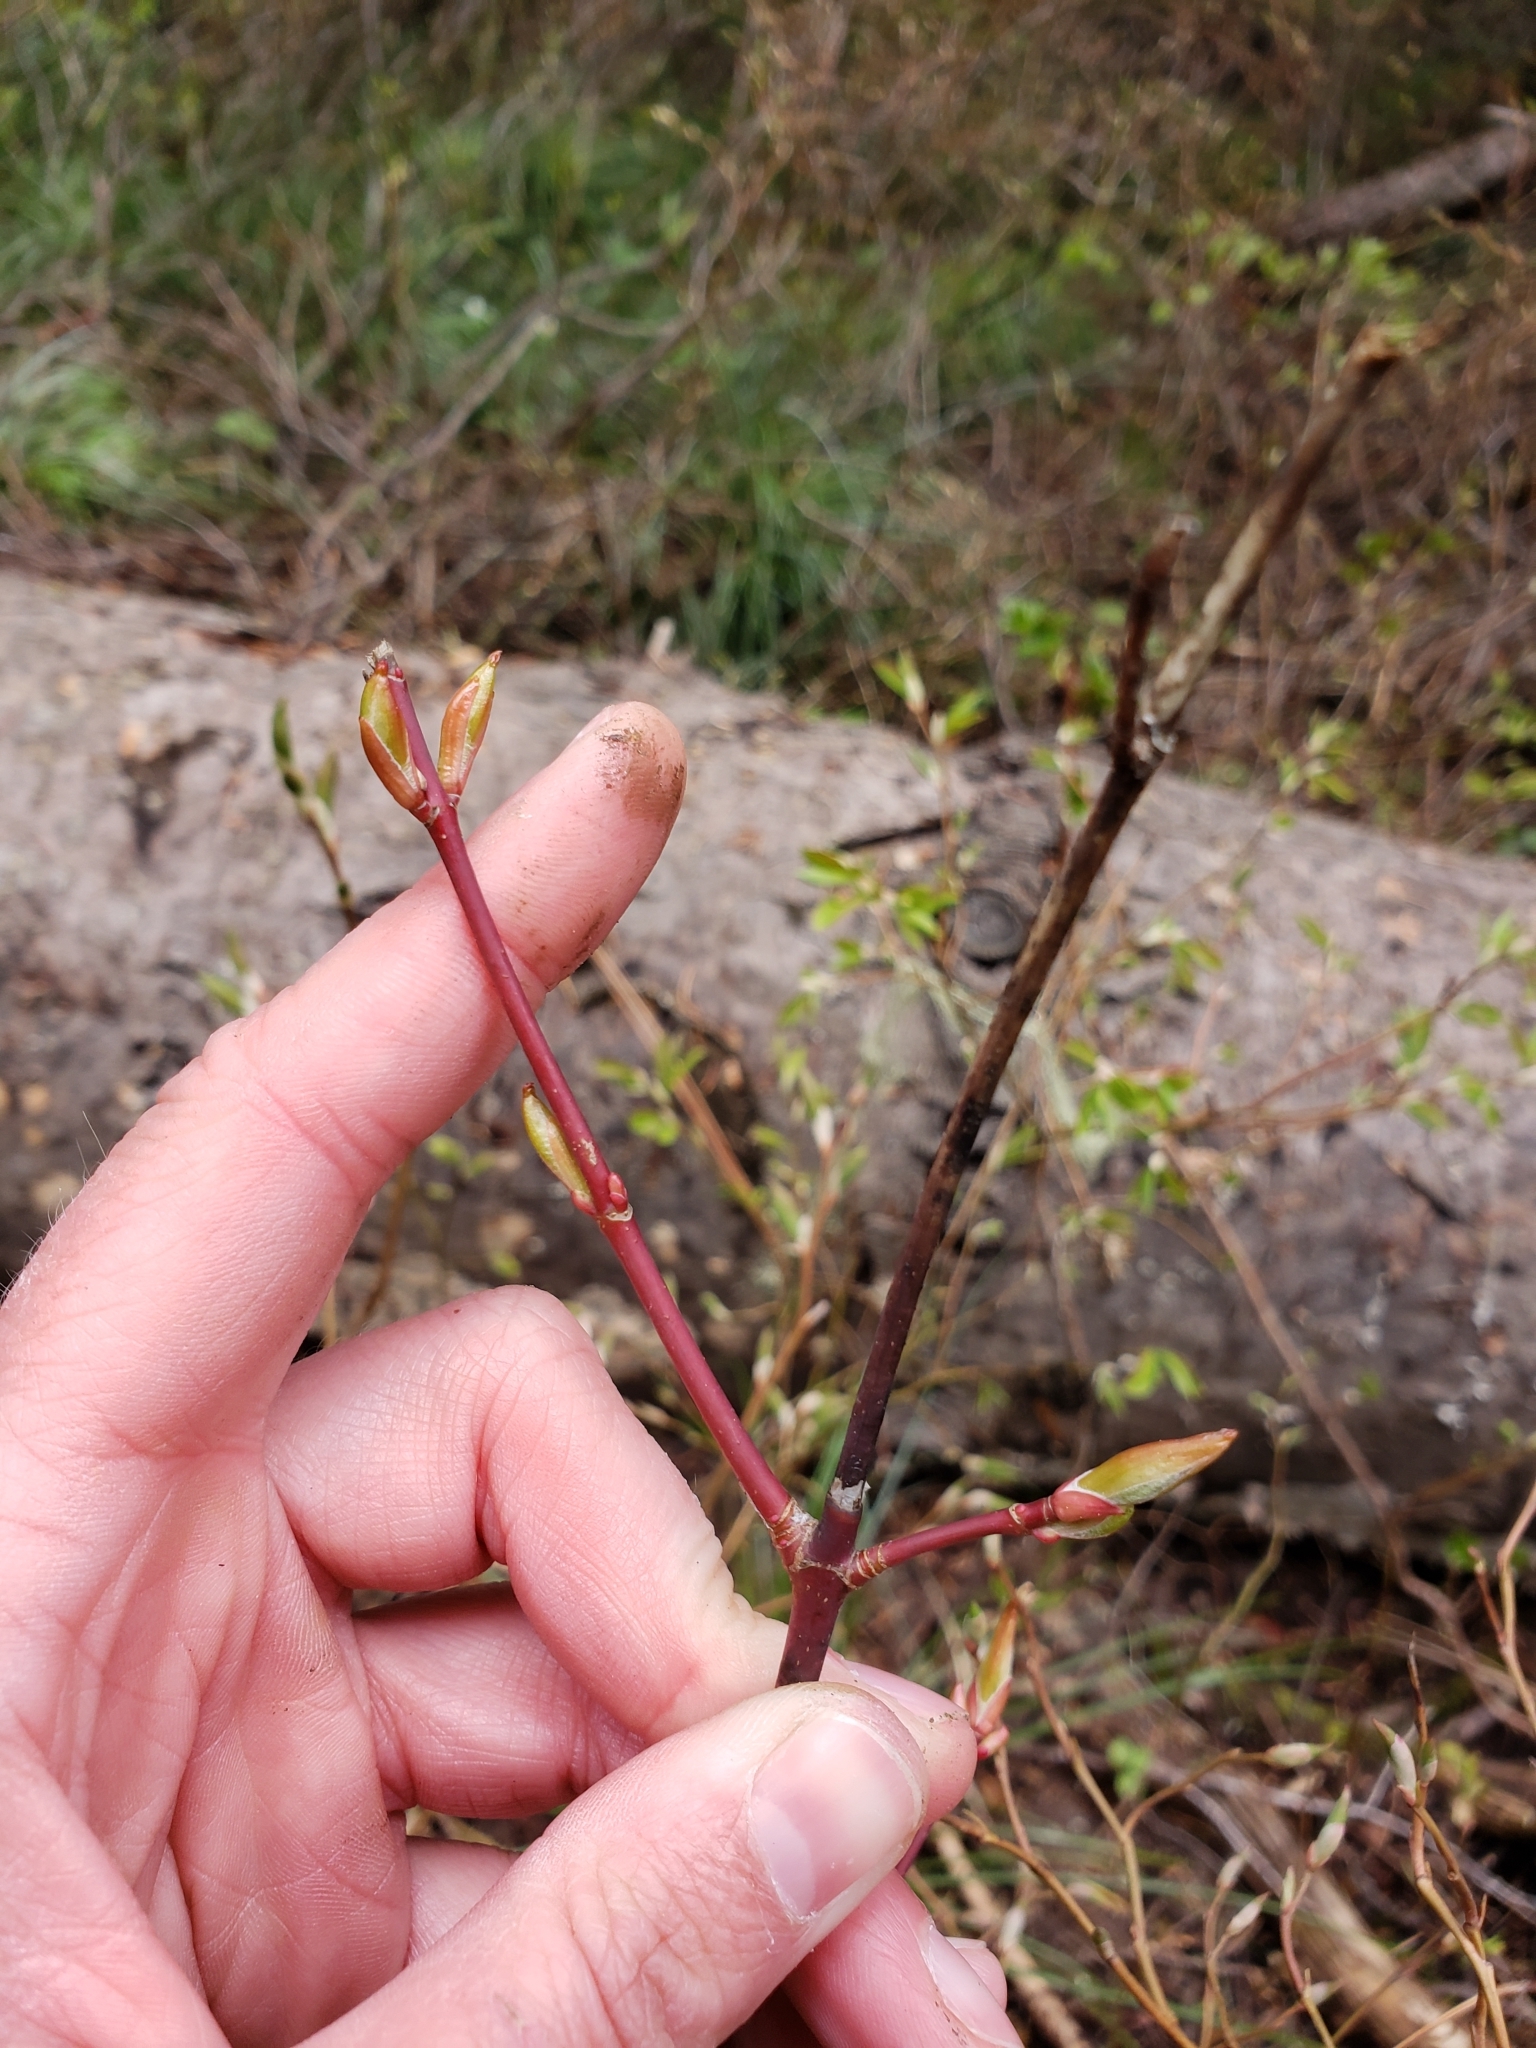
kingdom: Plantae
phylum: Tracheophyta
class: Magnoliopsida
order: Cornales
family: Cornaceae
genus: Cornus
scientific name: Cornus sericea
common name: Red-osier dogwood
